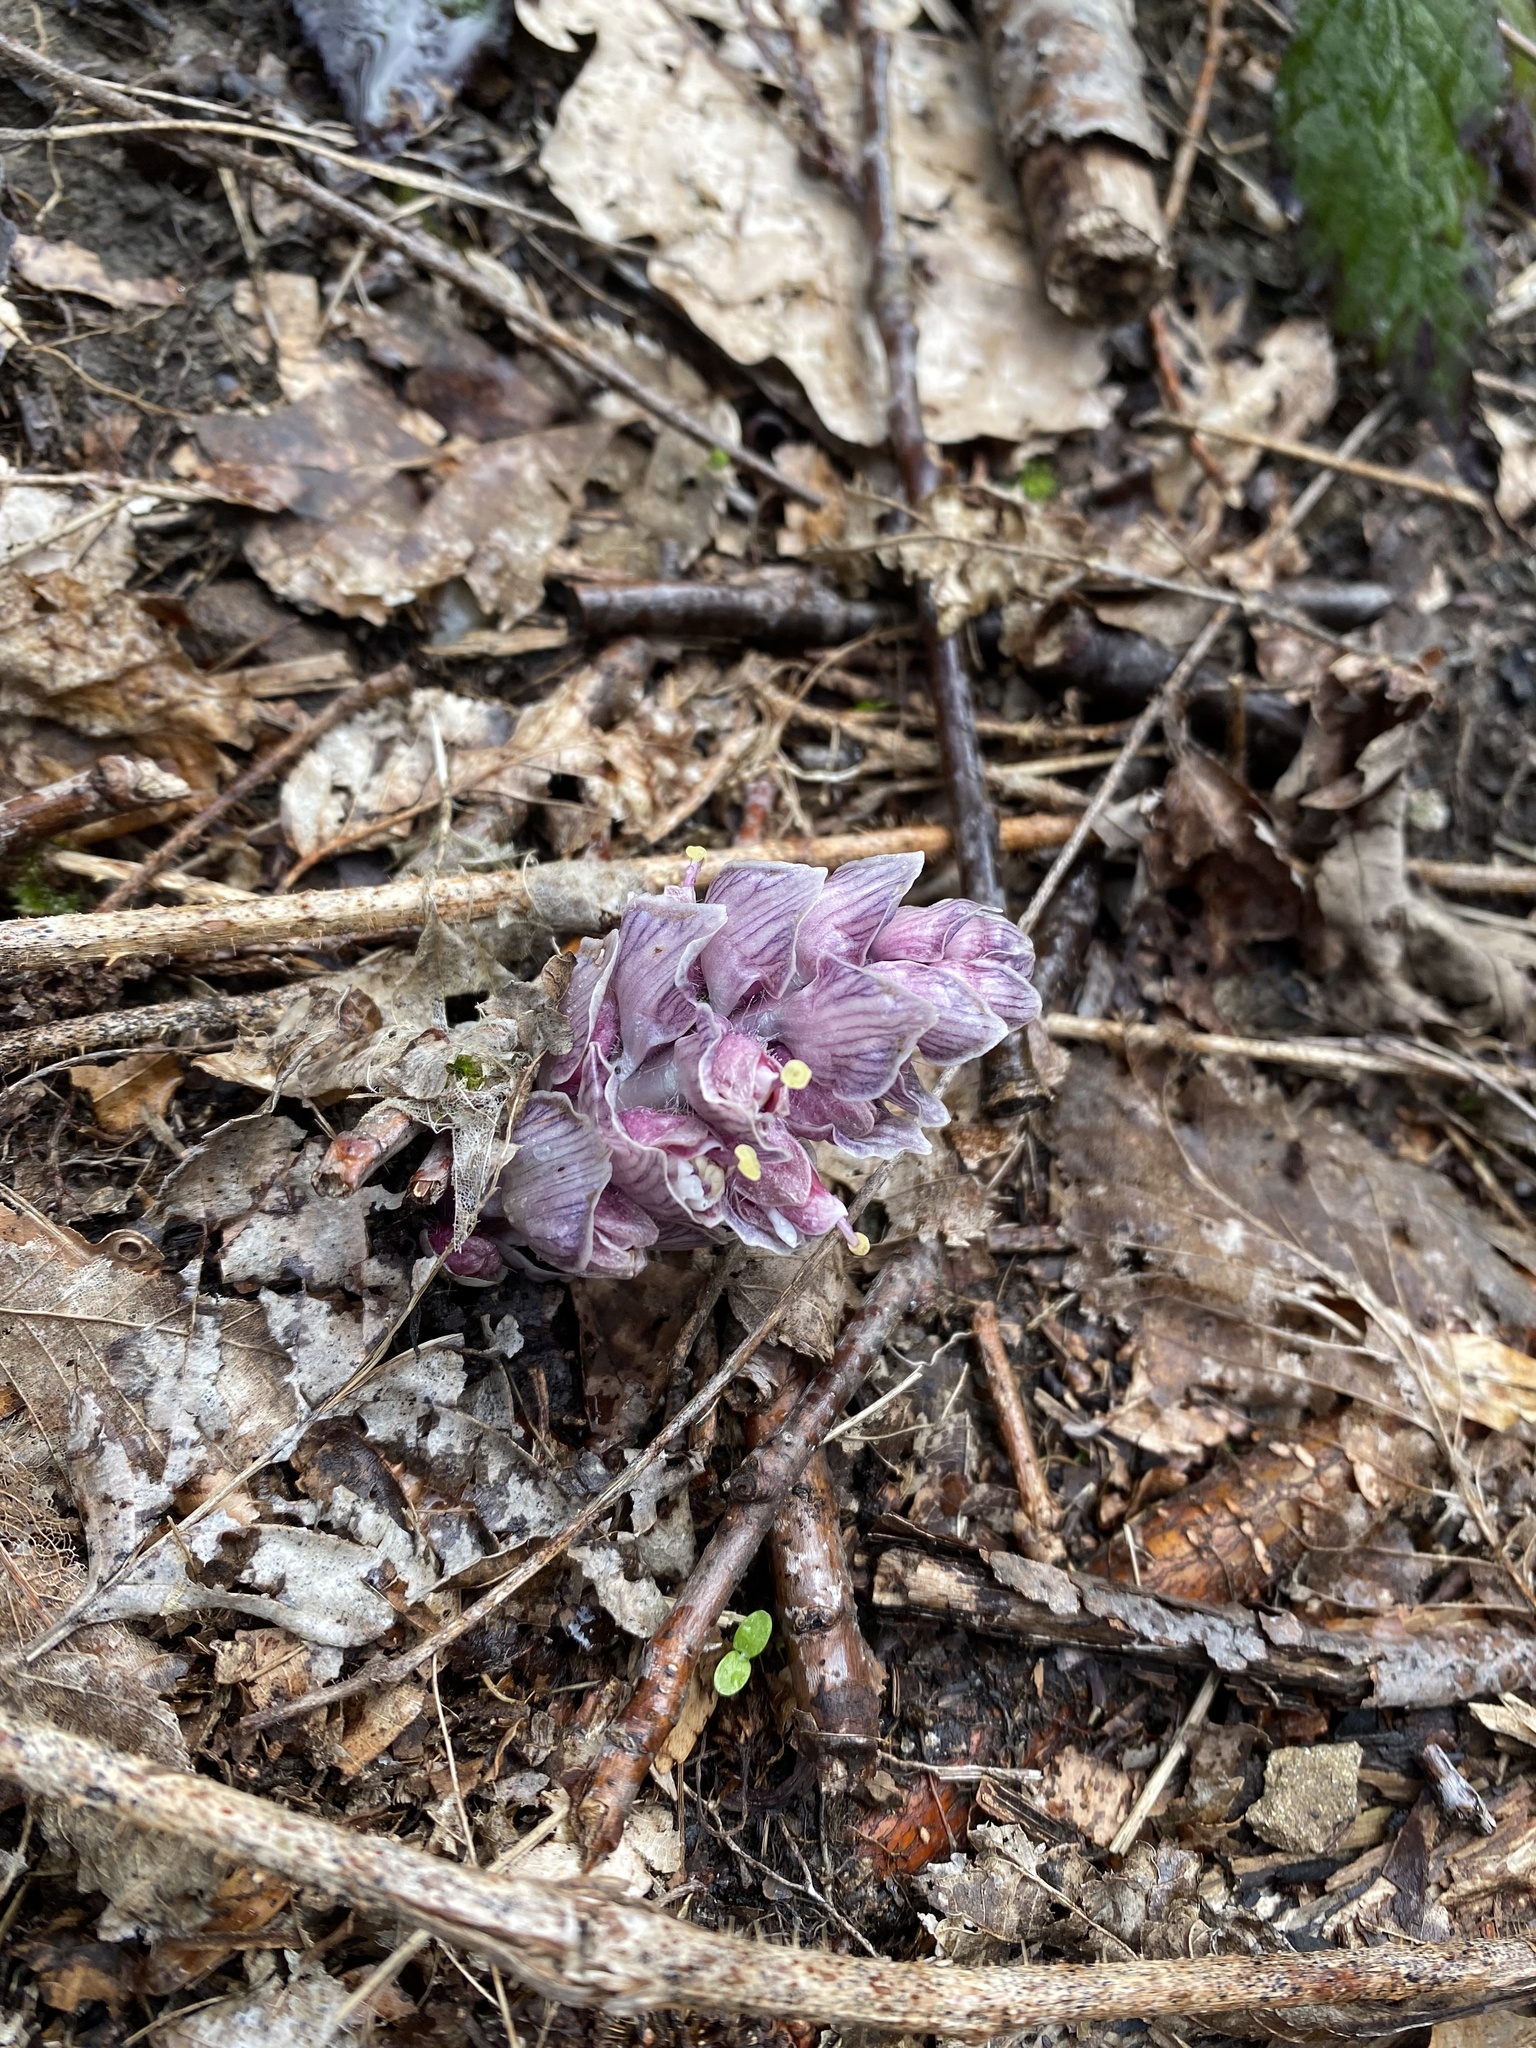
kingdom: Plantae
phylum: Tracheophyta
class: Magnoliopsida
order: Lamiales
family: Orobanchaceae
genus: Lathraea
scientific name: Lathraea squamaria
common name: Toothwort
